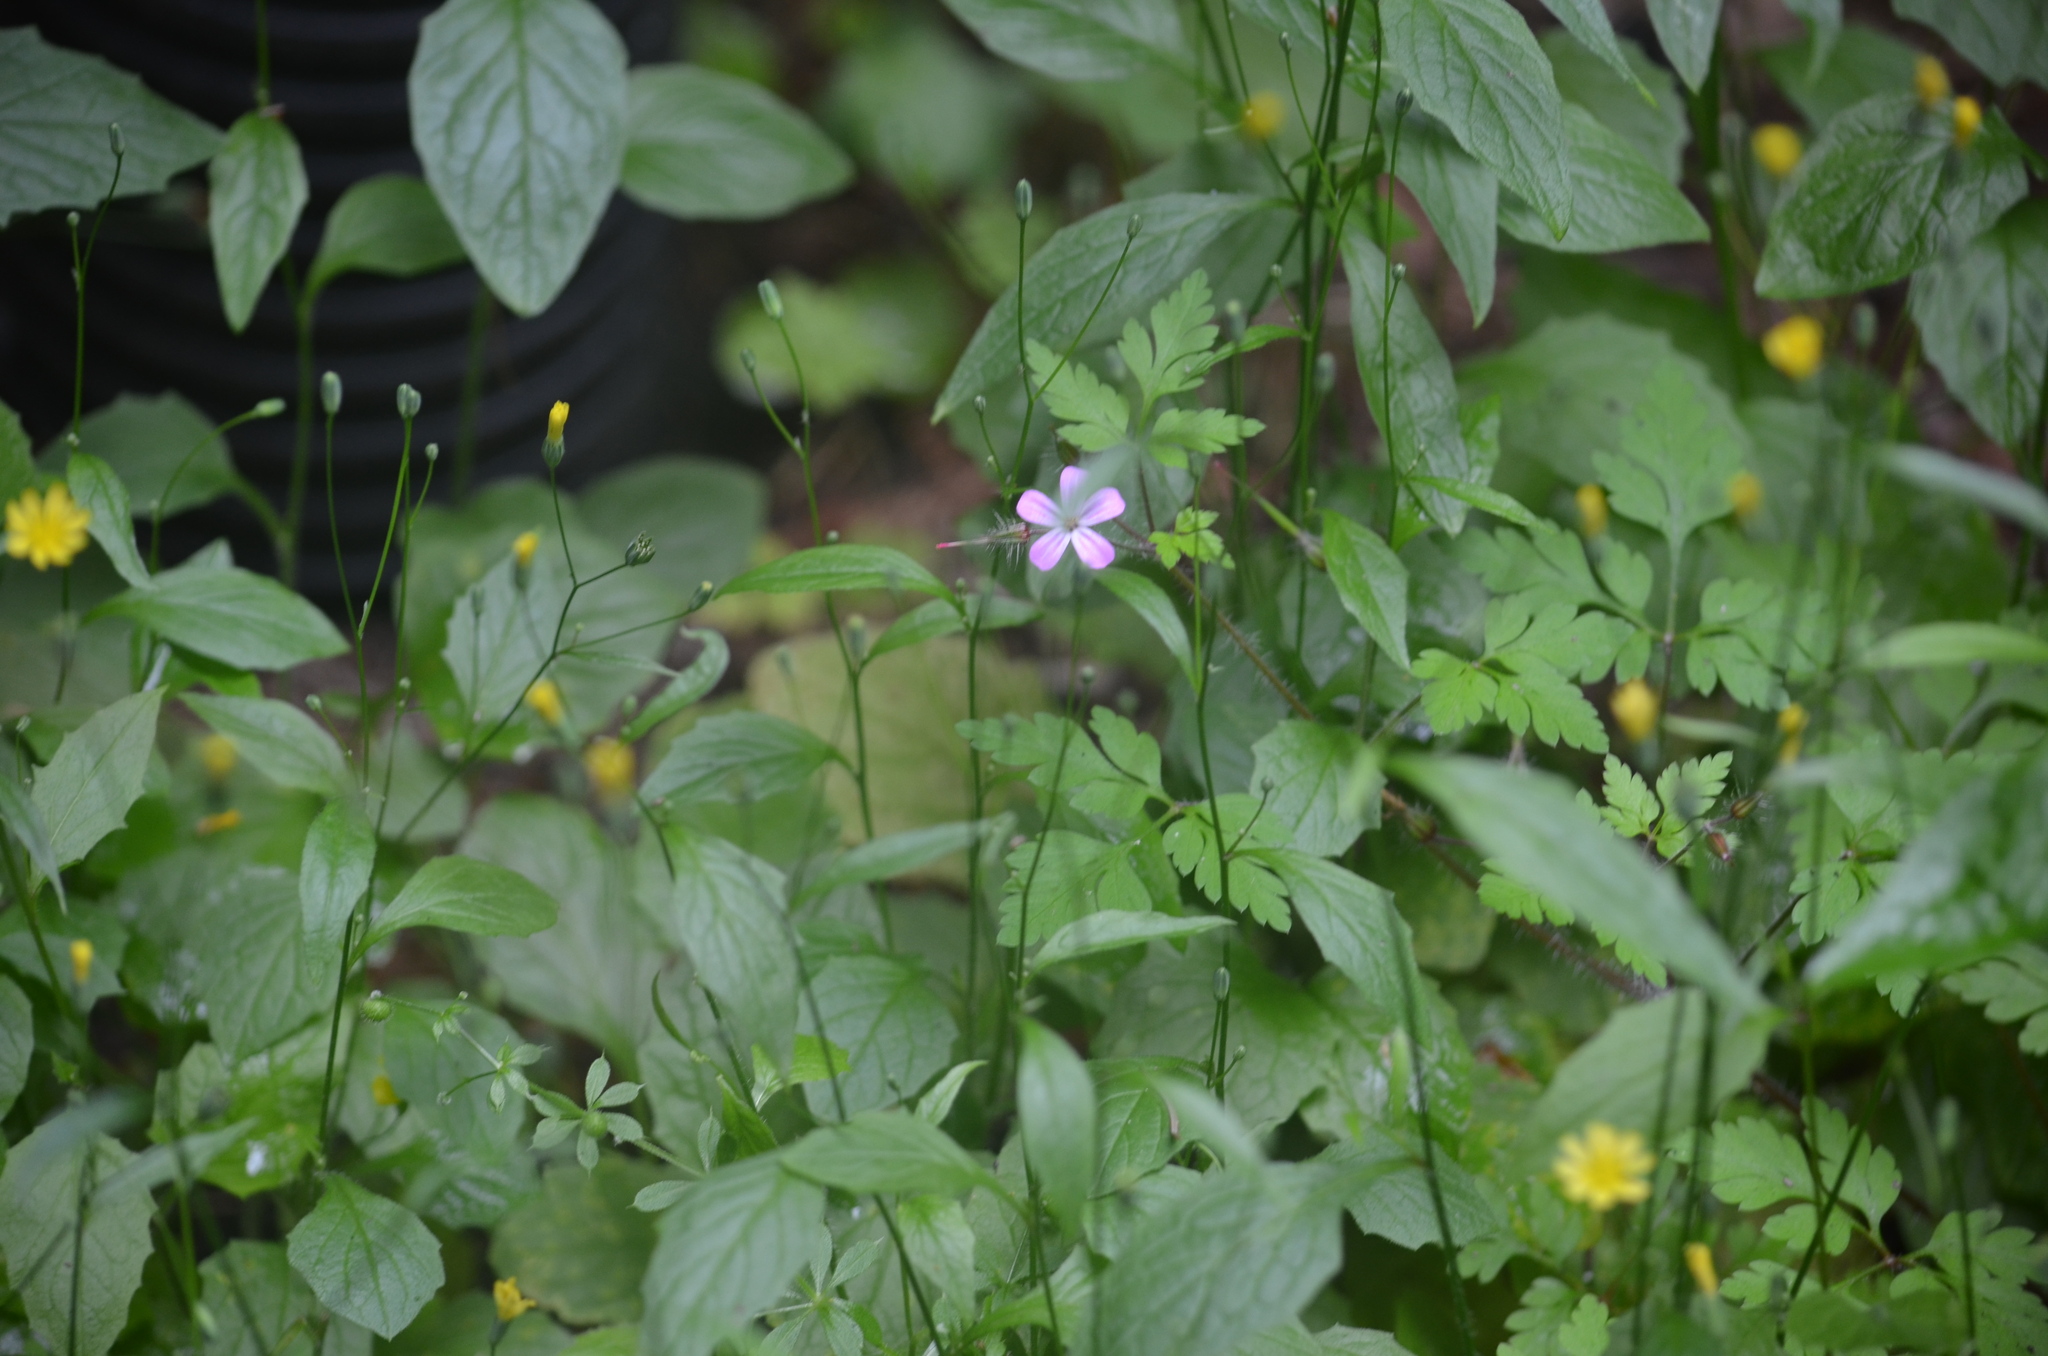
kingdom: Plantae
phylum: Tracheophyta
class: Magnoliopsida
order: Geraniales
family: Geraniaceae
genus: Geranium
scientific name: Geranium robertianum
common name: Herb-robert
